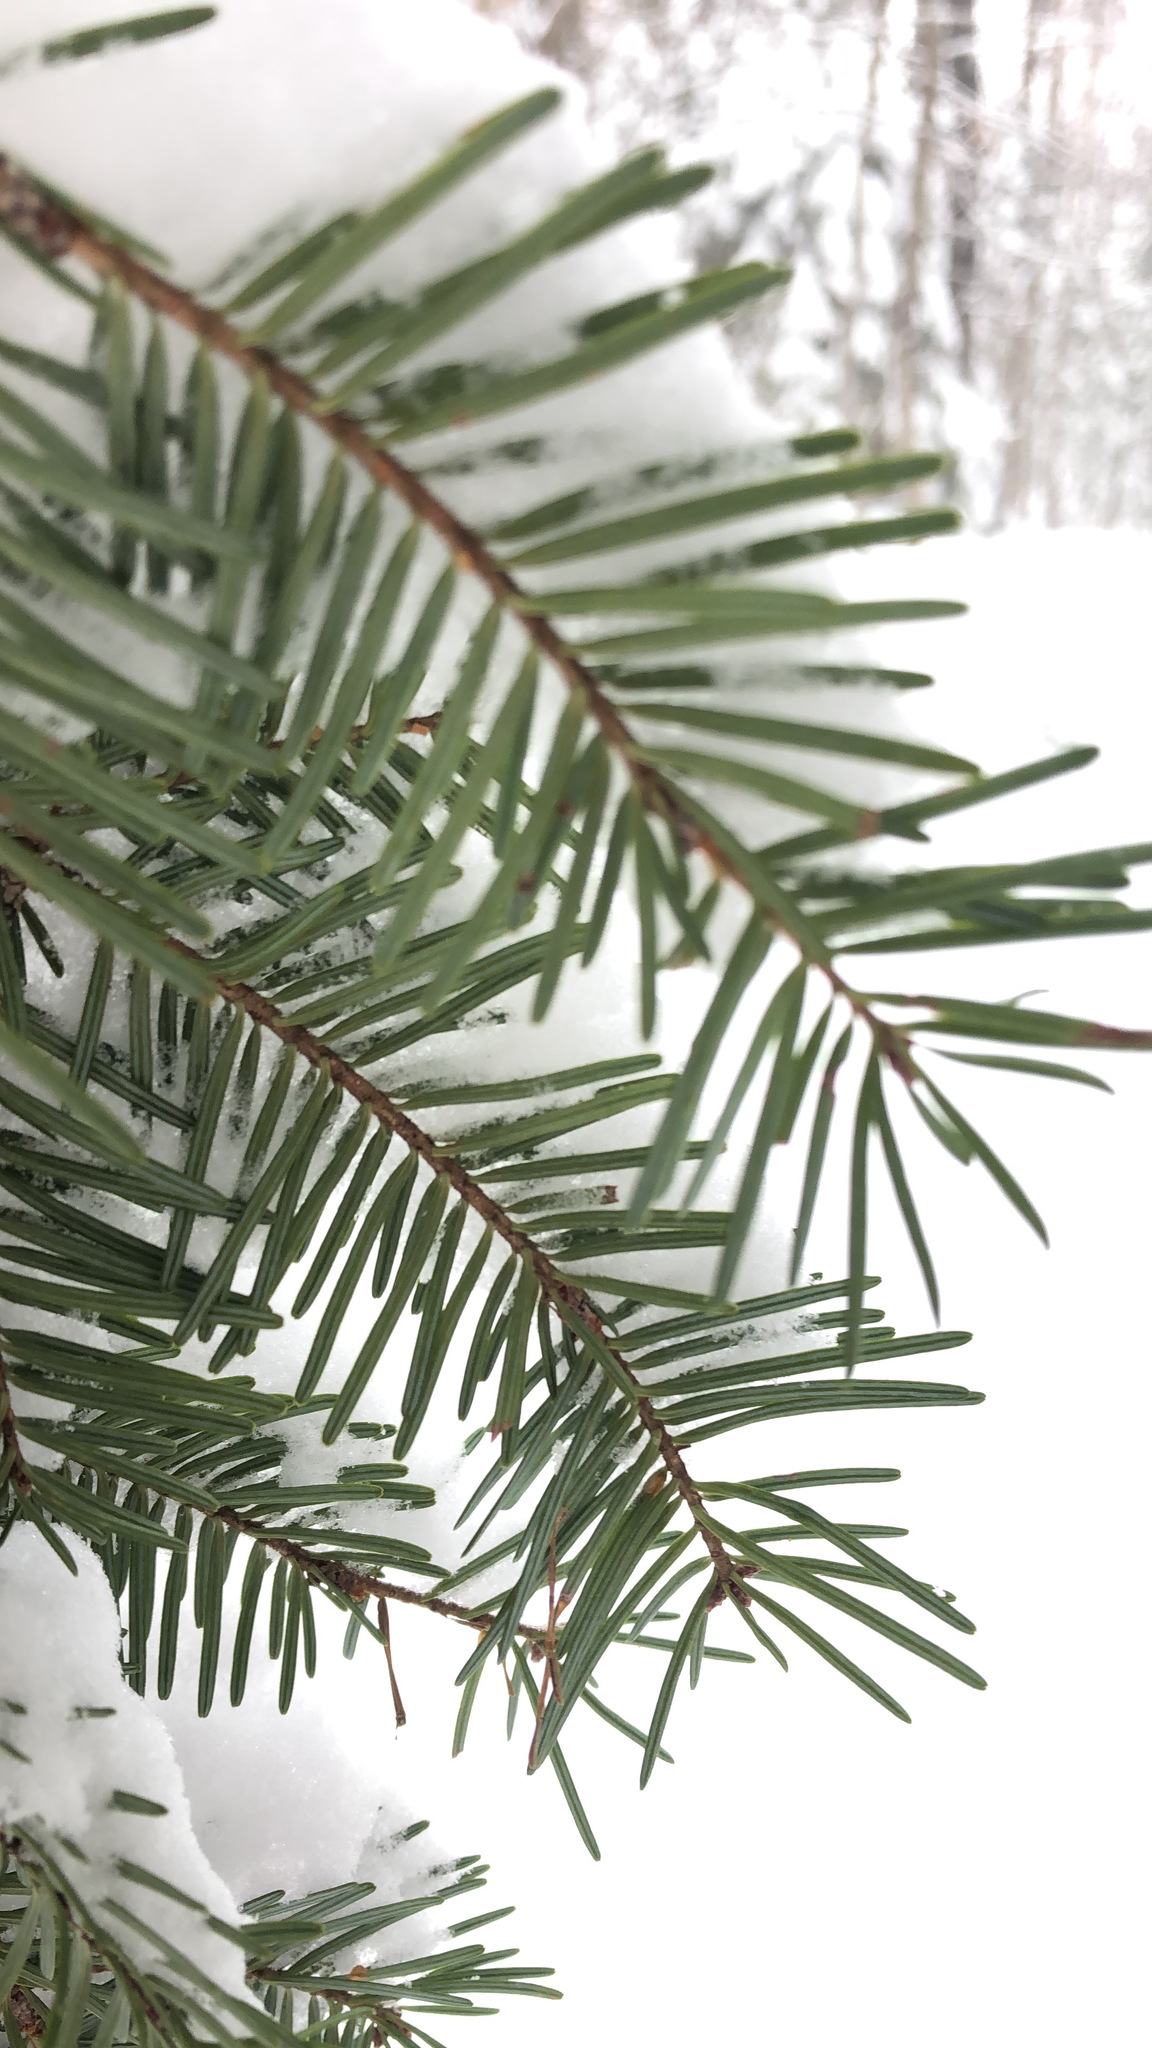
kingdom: Plantae
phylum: Tracheophyta
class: Pinopsida
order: Pinales
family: Pinaceae
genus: Abies
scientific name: Abies balsamea
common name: Balsam fir
